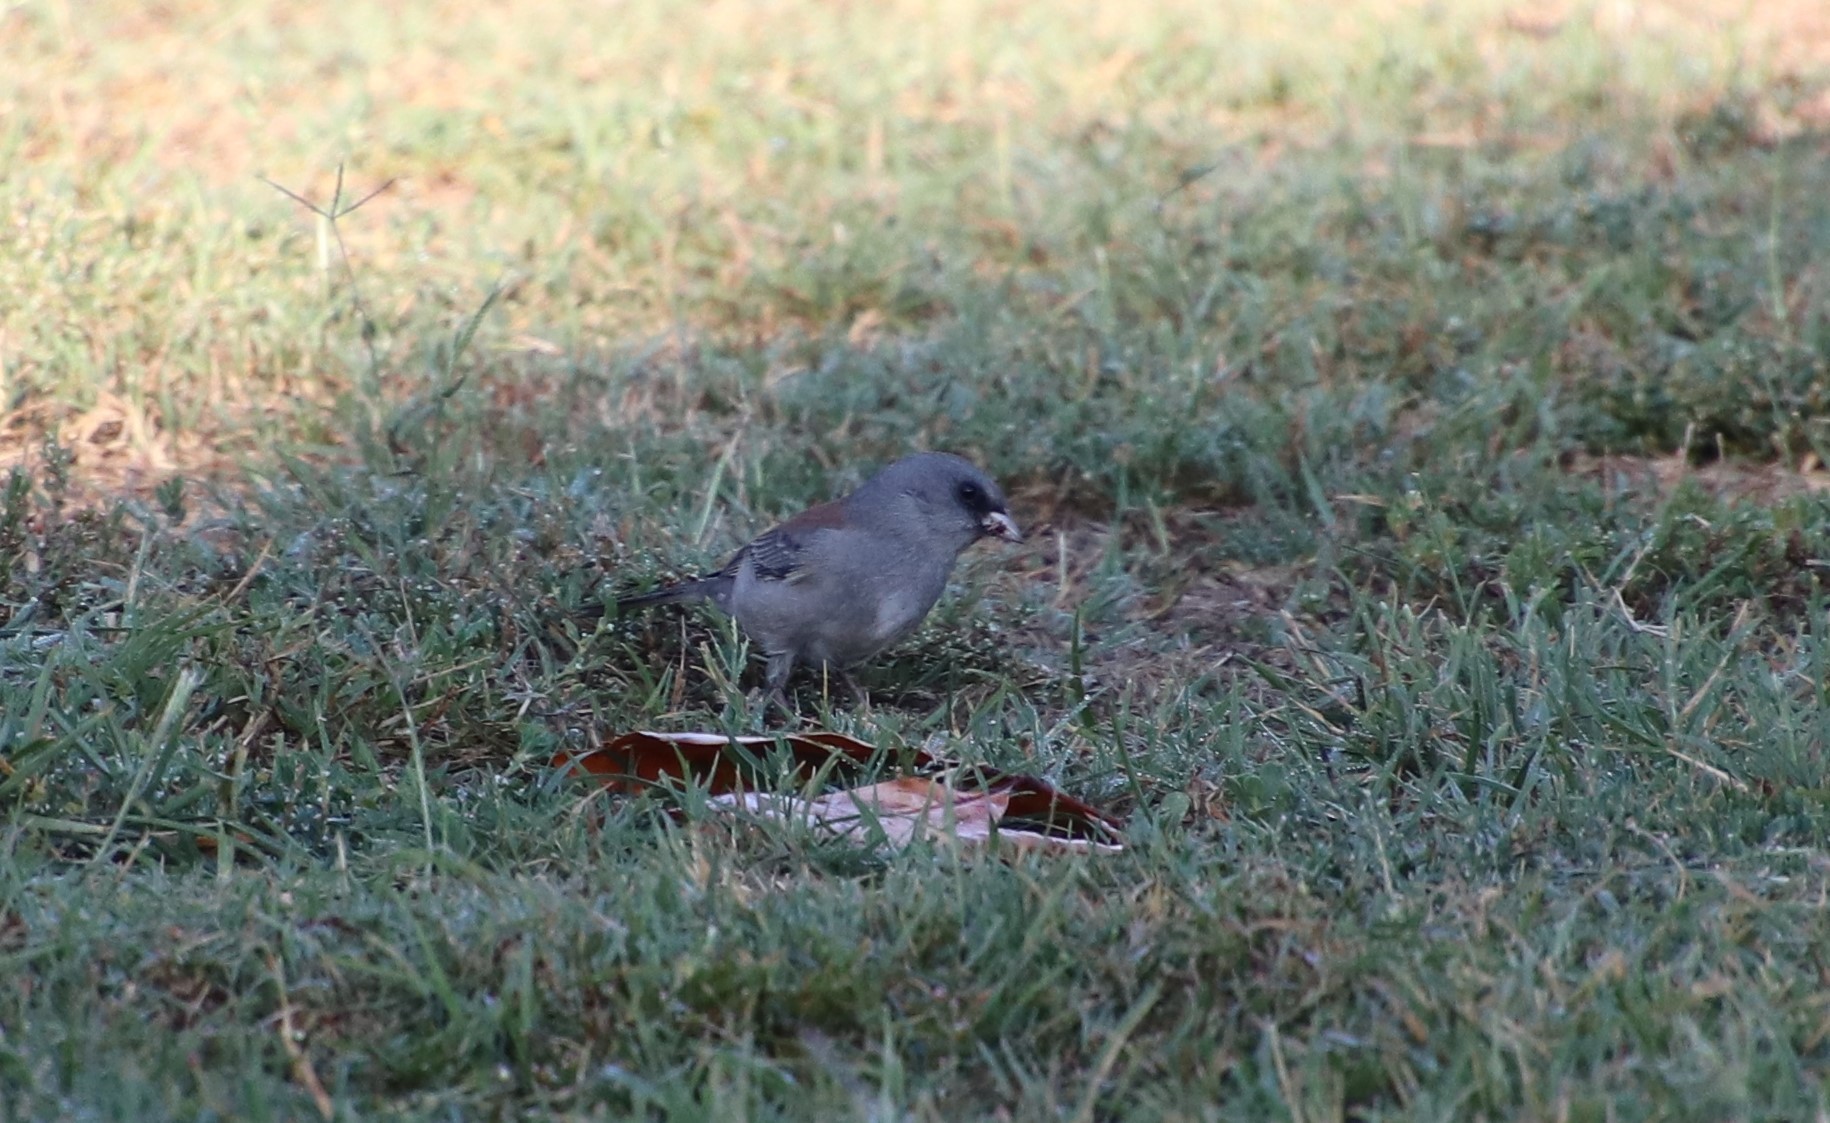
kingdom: Animalia
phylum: Chordata
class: Aves
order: Passeriformes
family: Passerellidae
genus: Junco
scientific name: Junco hyemalis
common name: Dark-eyed junco
